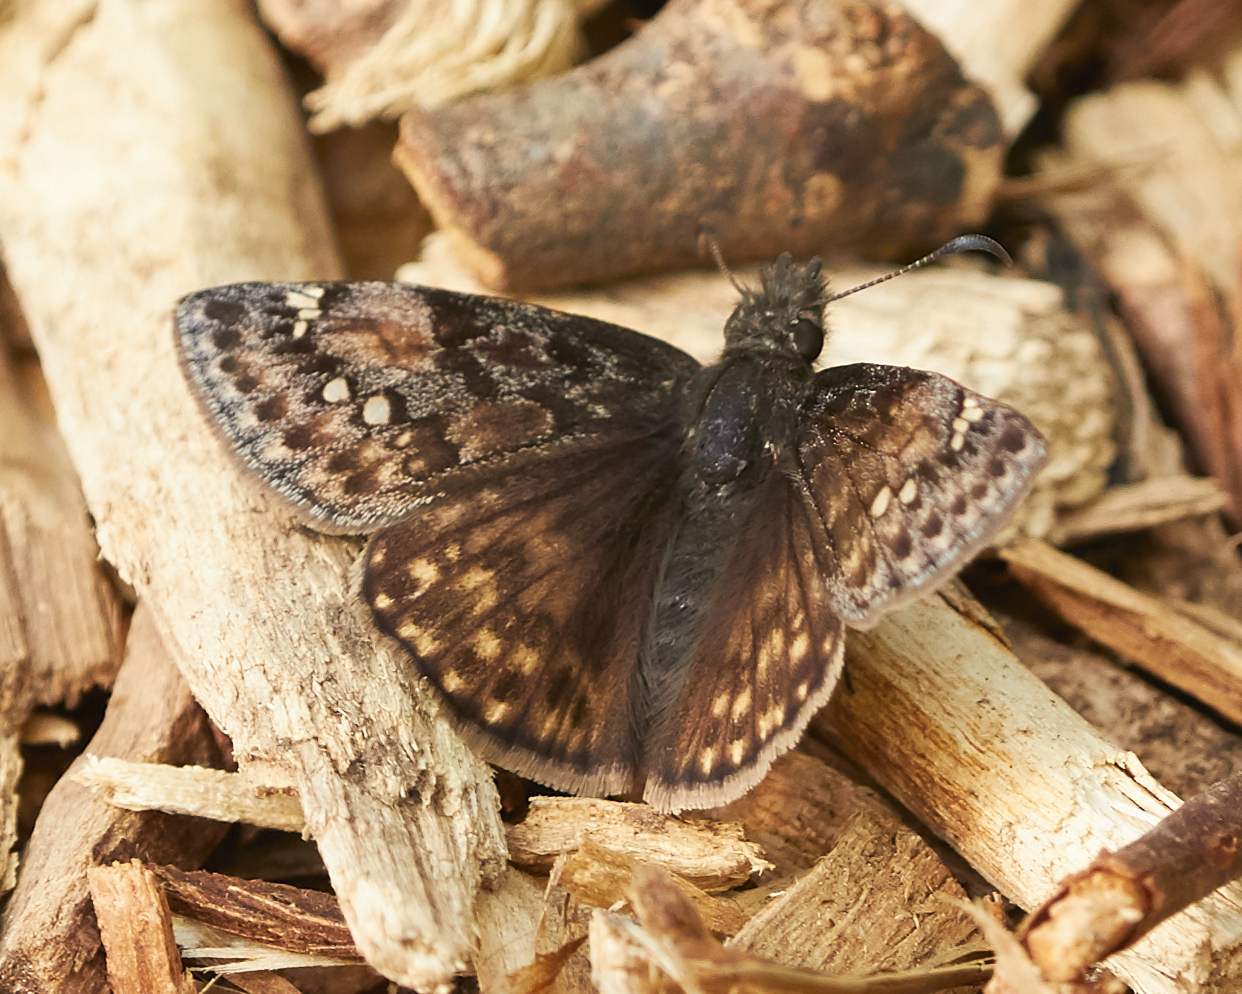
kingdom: Animalia
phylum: Arthropoda
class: Insecta
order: Lepidoptera
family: Hesperiidae
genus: Erynnis
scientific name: Erynnis juvenalis
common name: Juvenal's duskywing
